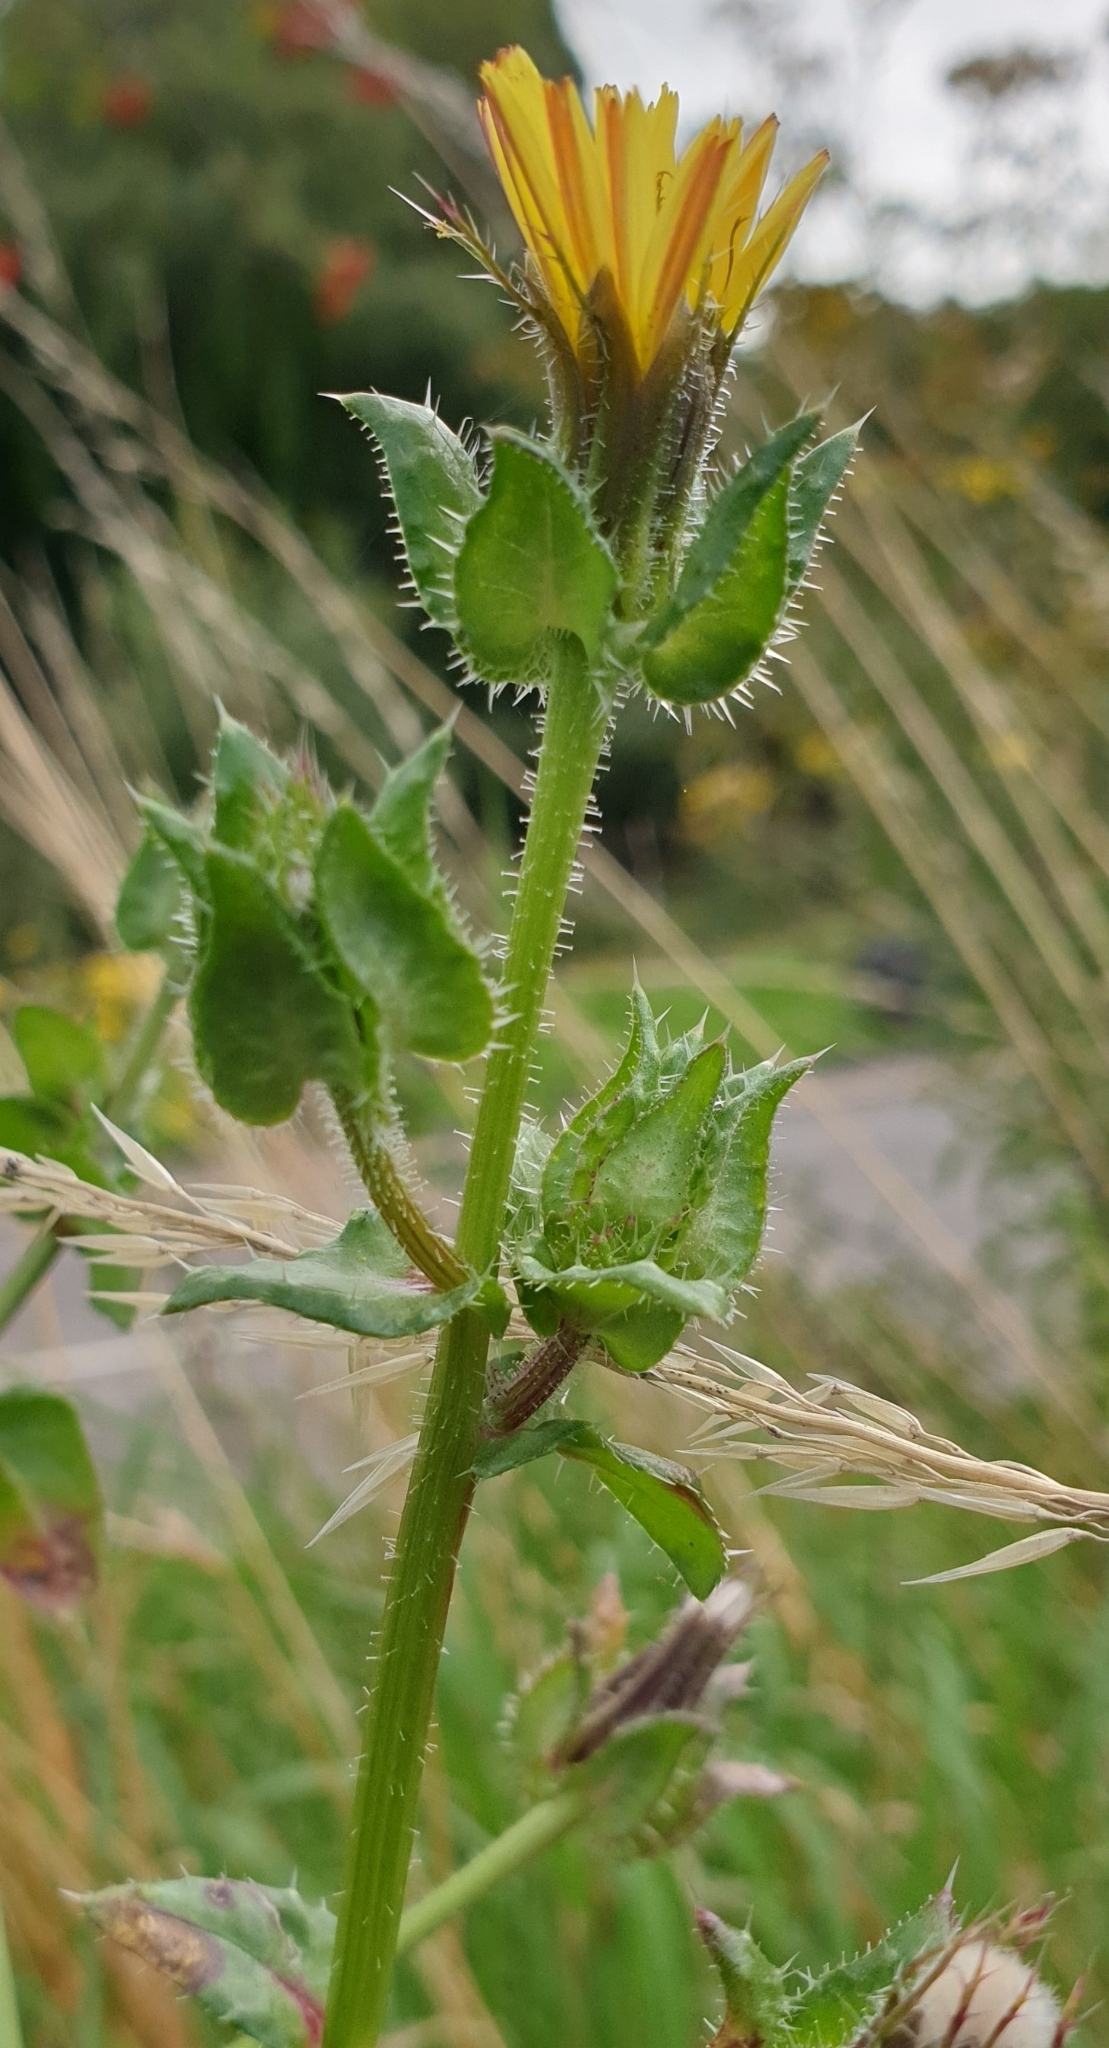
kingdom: Plantae
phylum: Tracheophyta
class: Magnoliopsida
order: Asterales
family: Asteraceae
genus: Helminthotheca
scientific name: Helminthotheca echioides
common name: Ox-tongue
